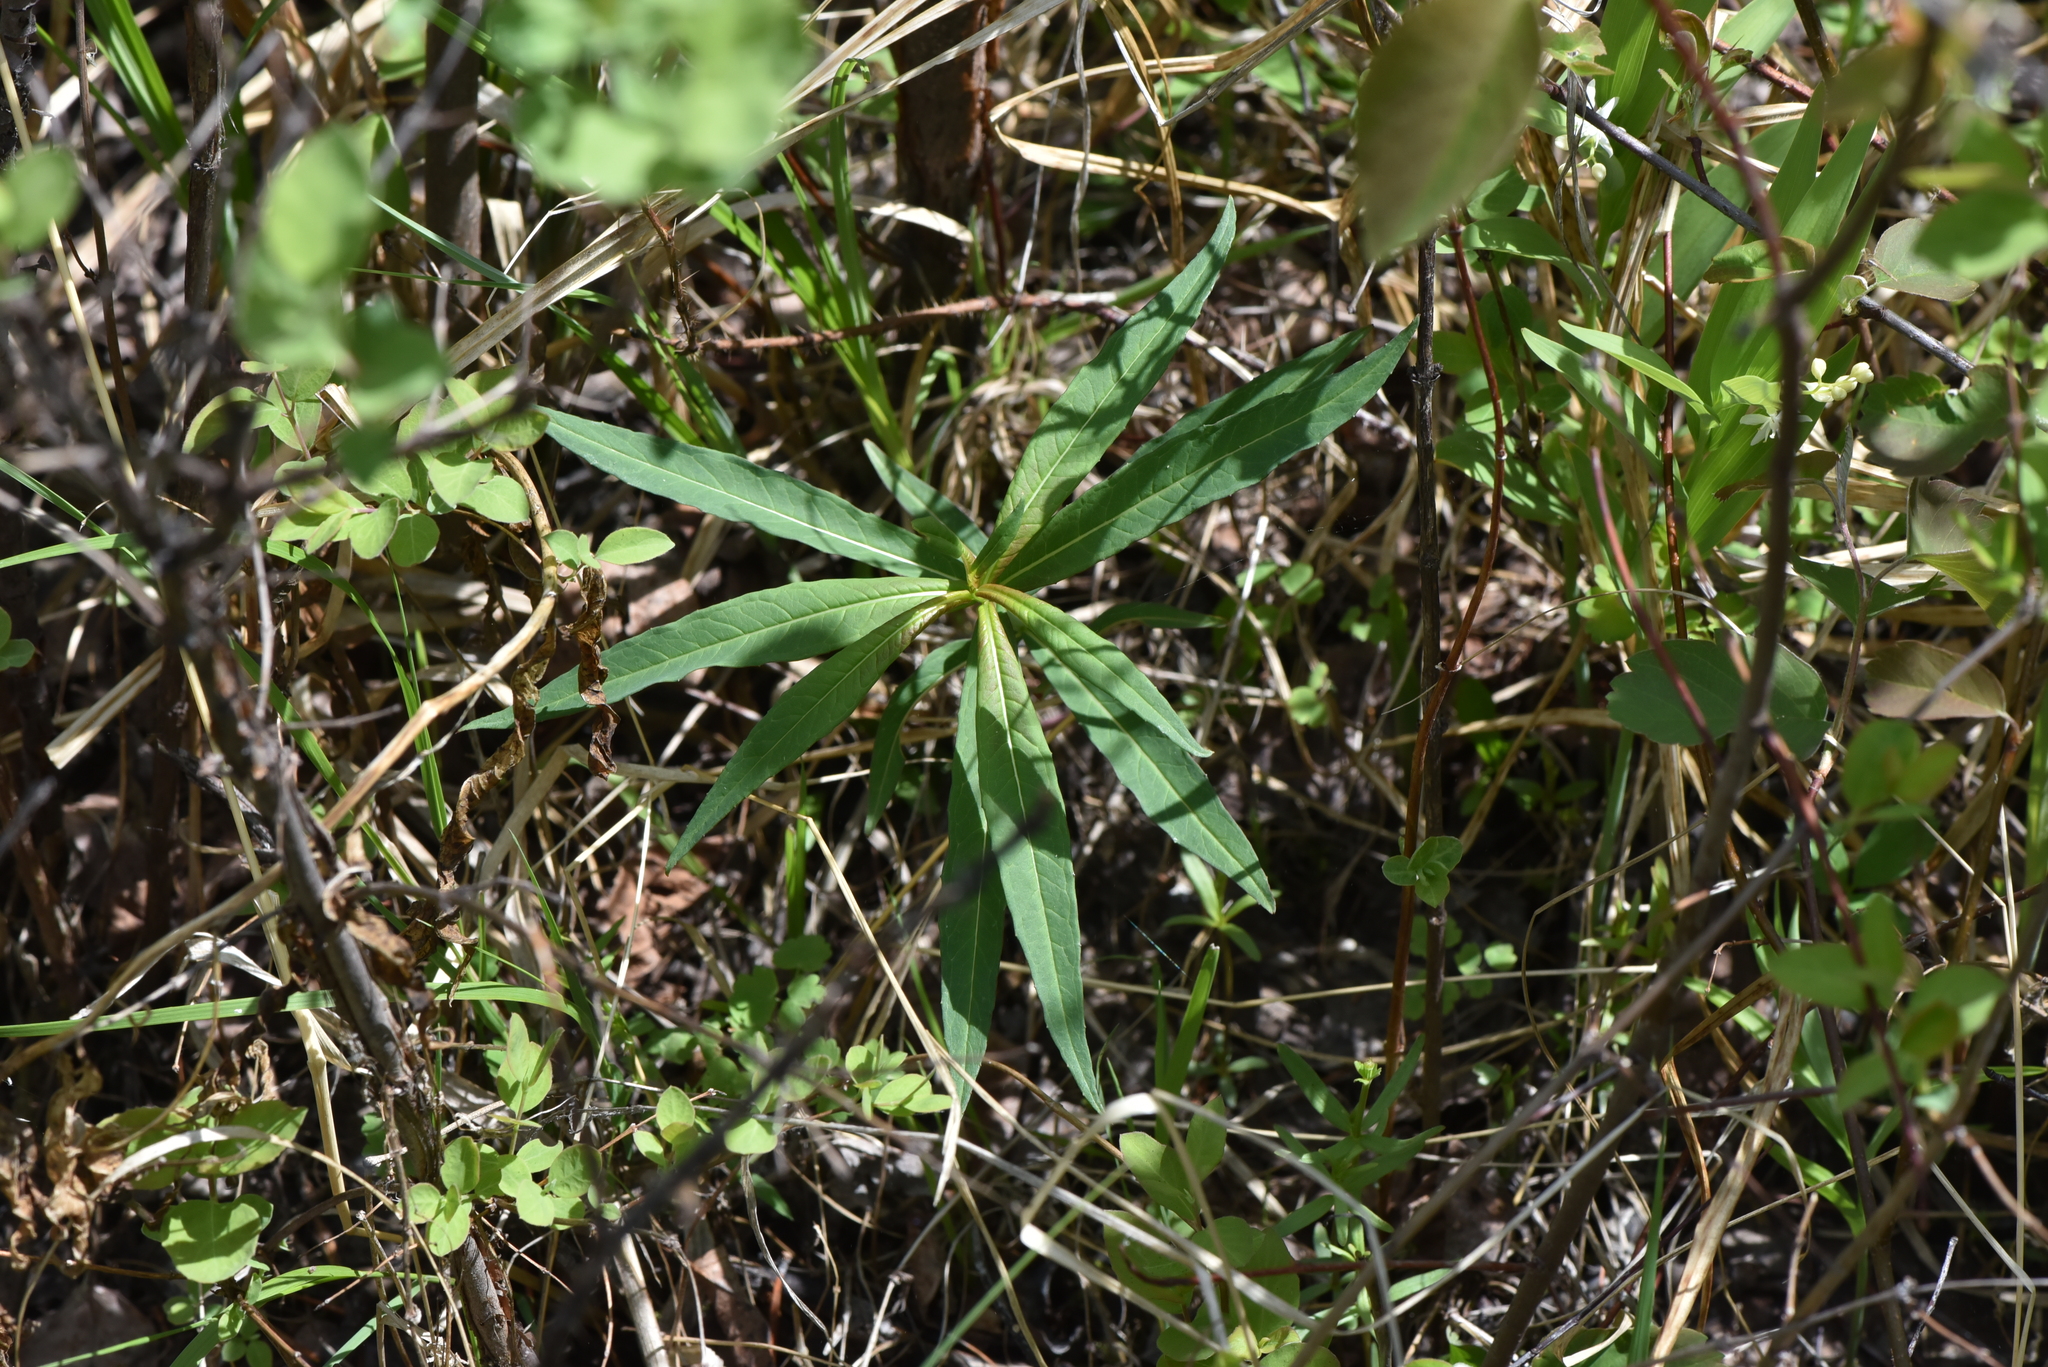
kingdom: Plantae
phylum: Tracheophyta
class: Magnoliopsida
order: Myrtales
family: Onagraceae
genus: Chamaenerion
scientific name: Chamaenerion angustifolium
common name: Fireweed
